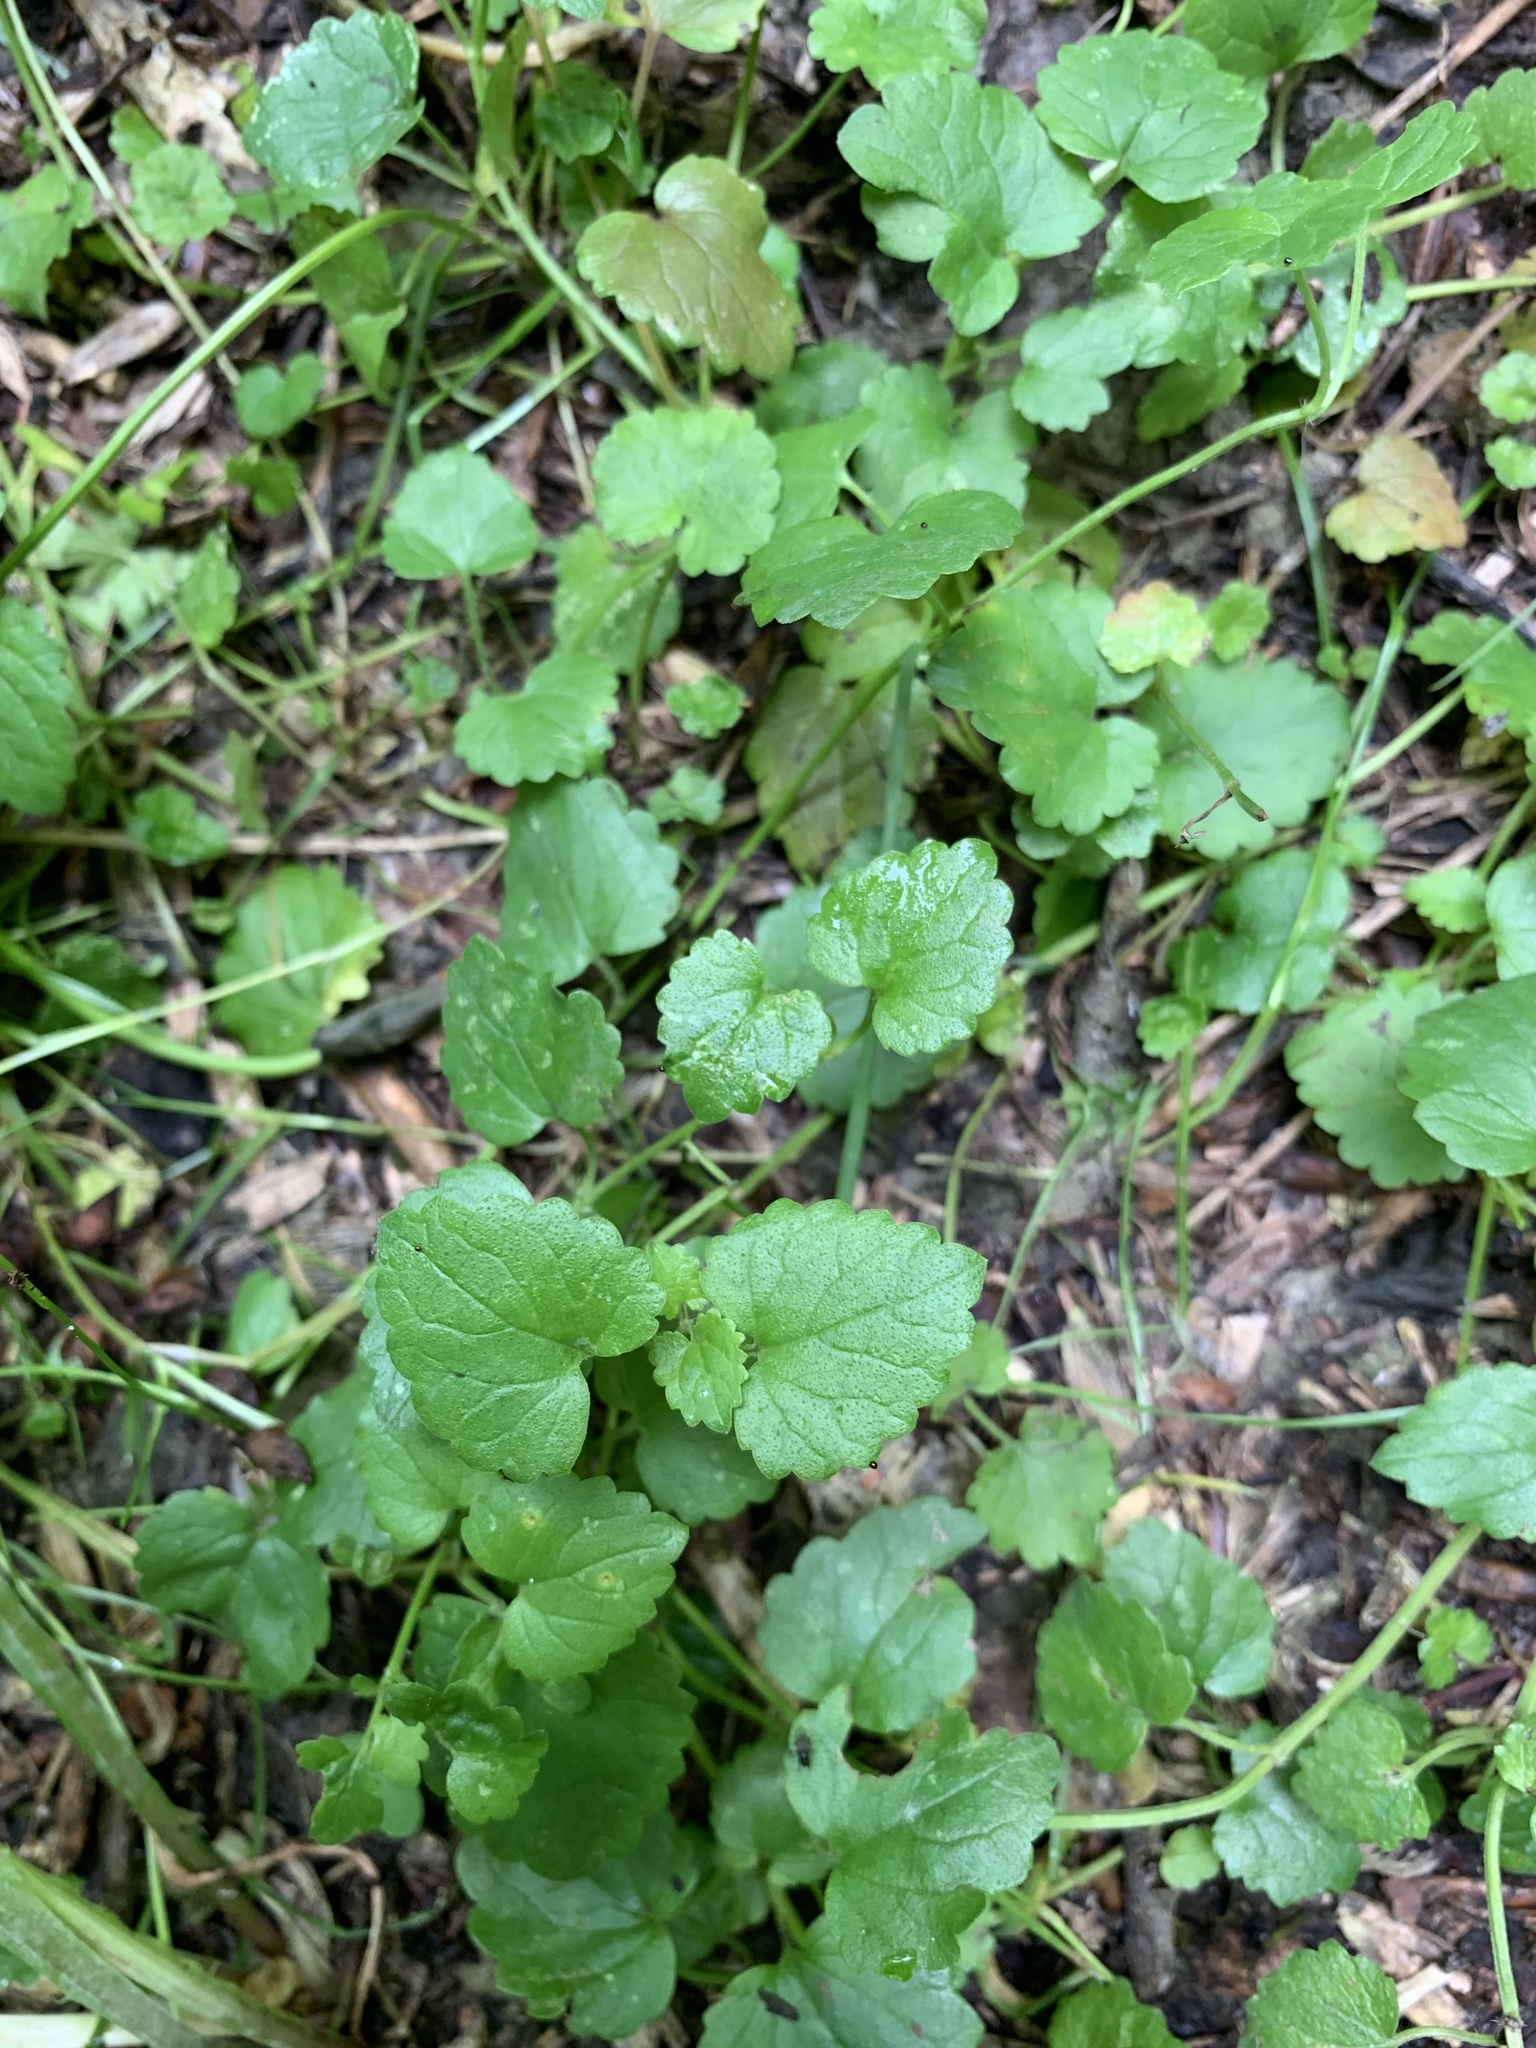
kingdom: Plantae
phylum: Tracheophyta
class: Magnoliopsida
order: Lamiales
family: Lamiaceae
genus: Glechoma
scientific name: Glechoma hederacea
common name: Ground ivy
